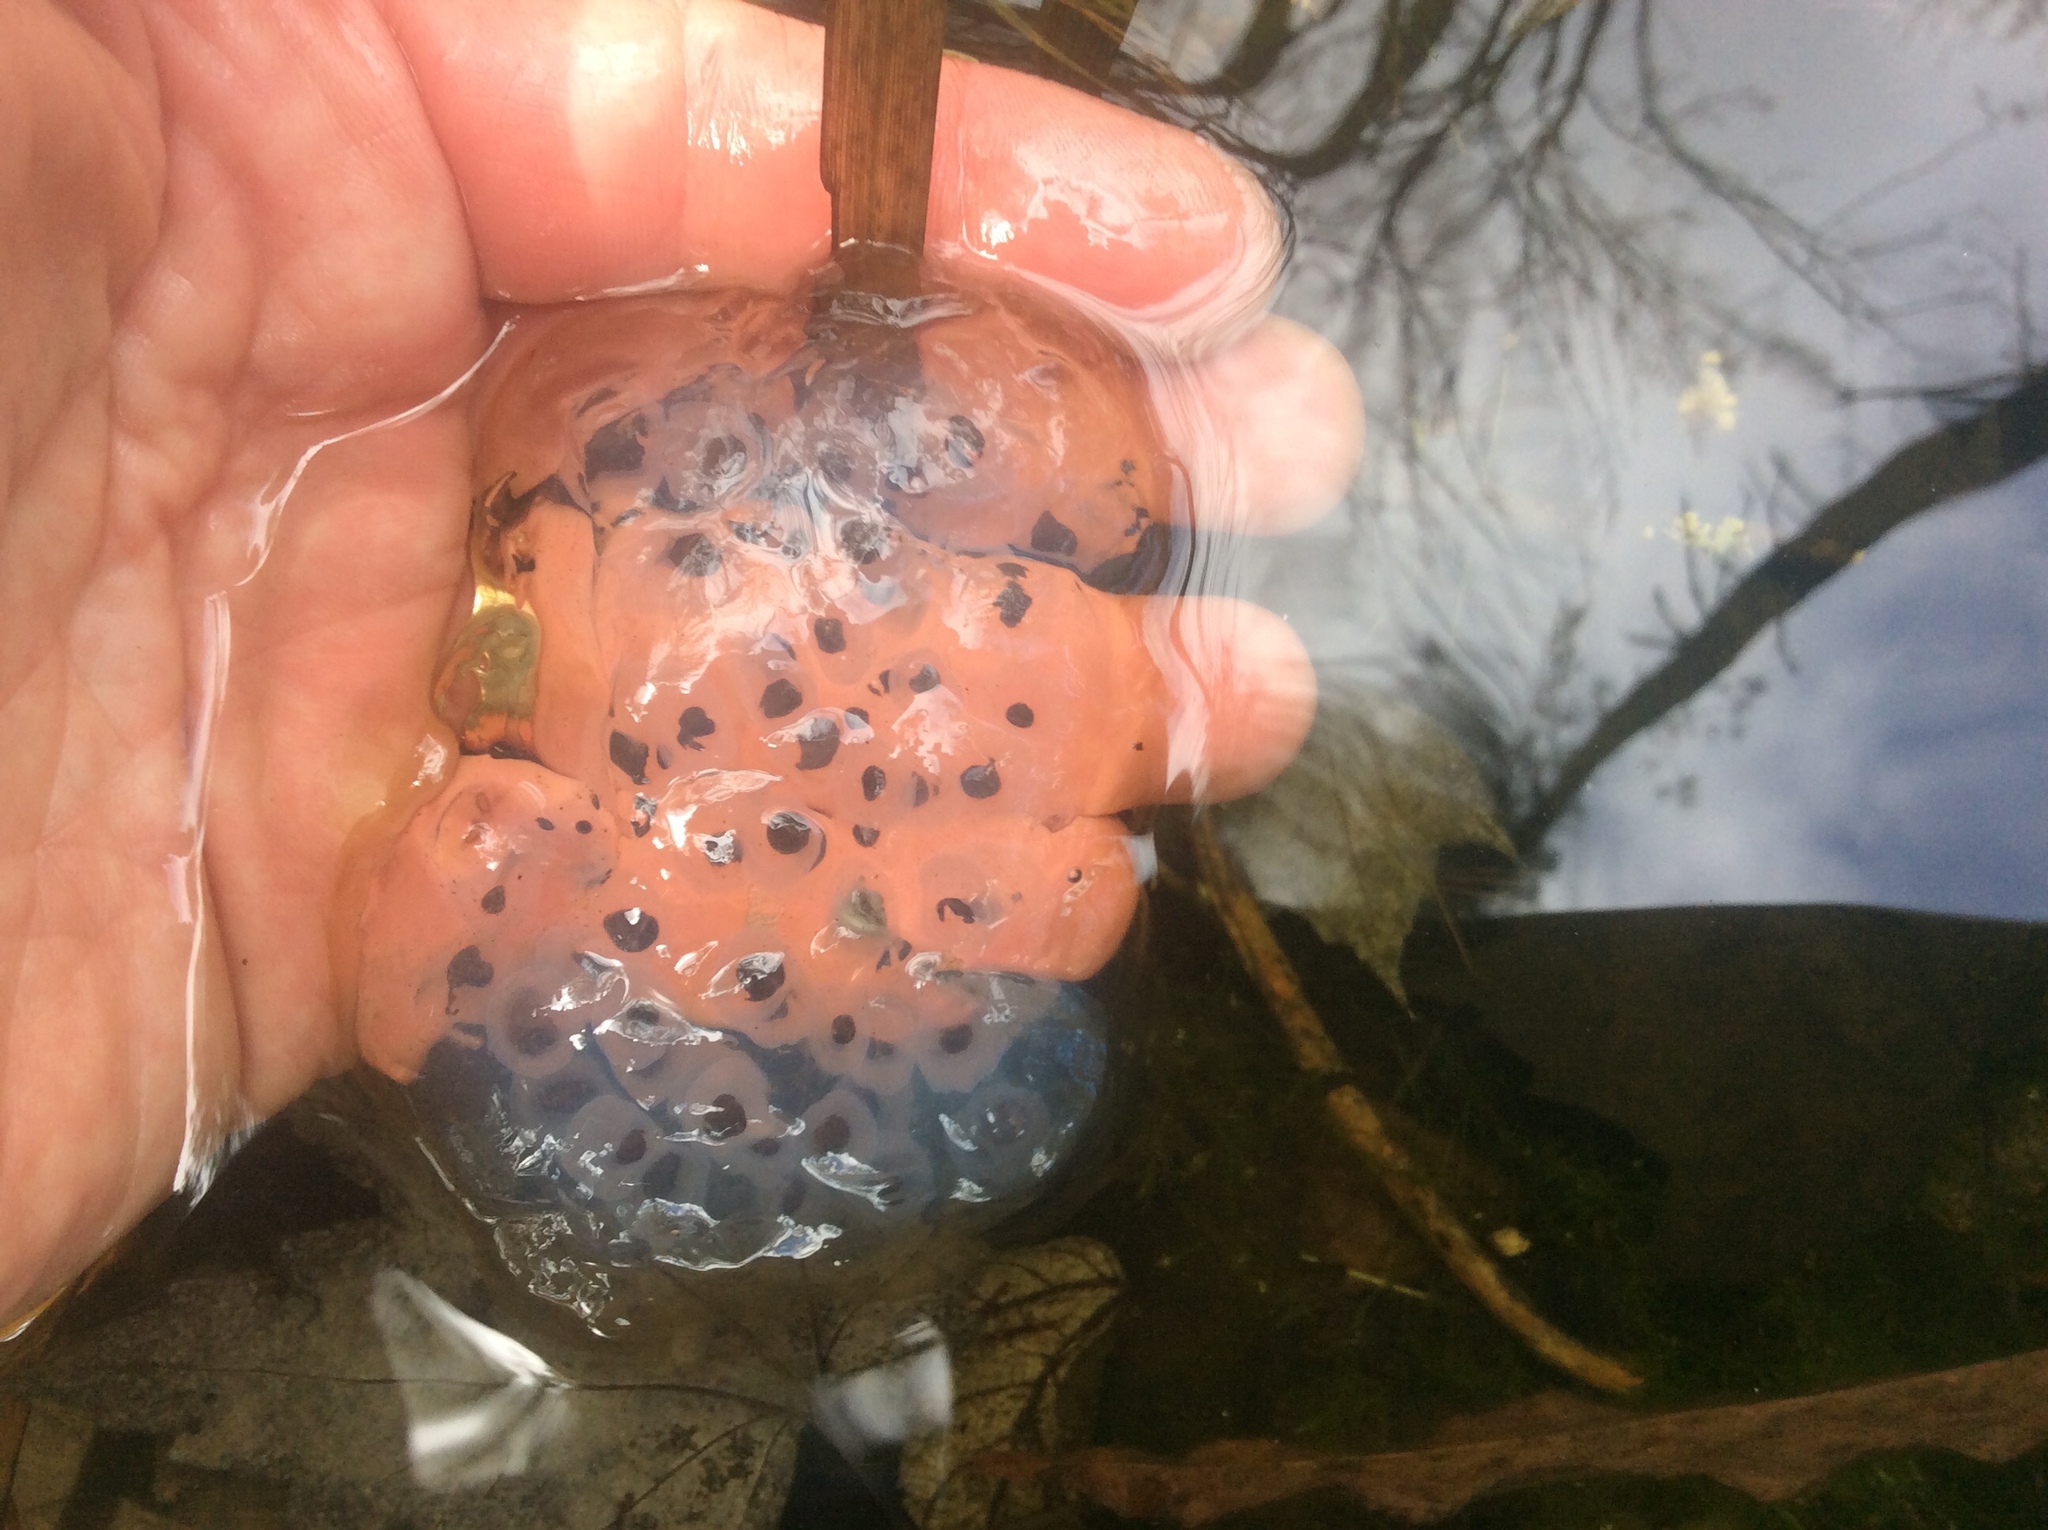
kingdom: Animalia
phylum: Chordata
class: Amphibia
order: Caudata
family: Ambystomatidae
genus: Ambystoma
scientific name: Ambystoma maculatum
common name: Spotted salamander
